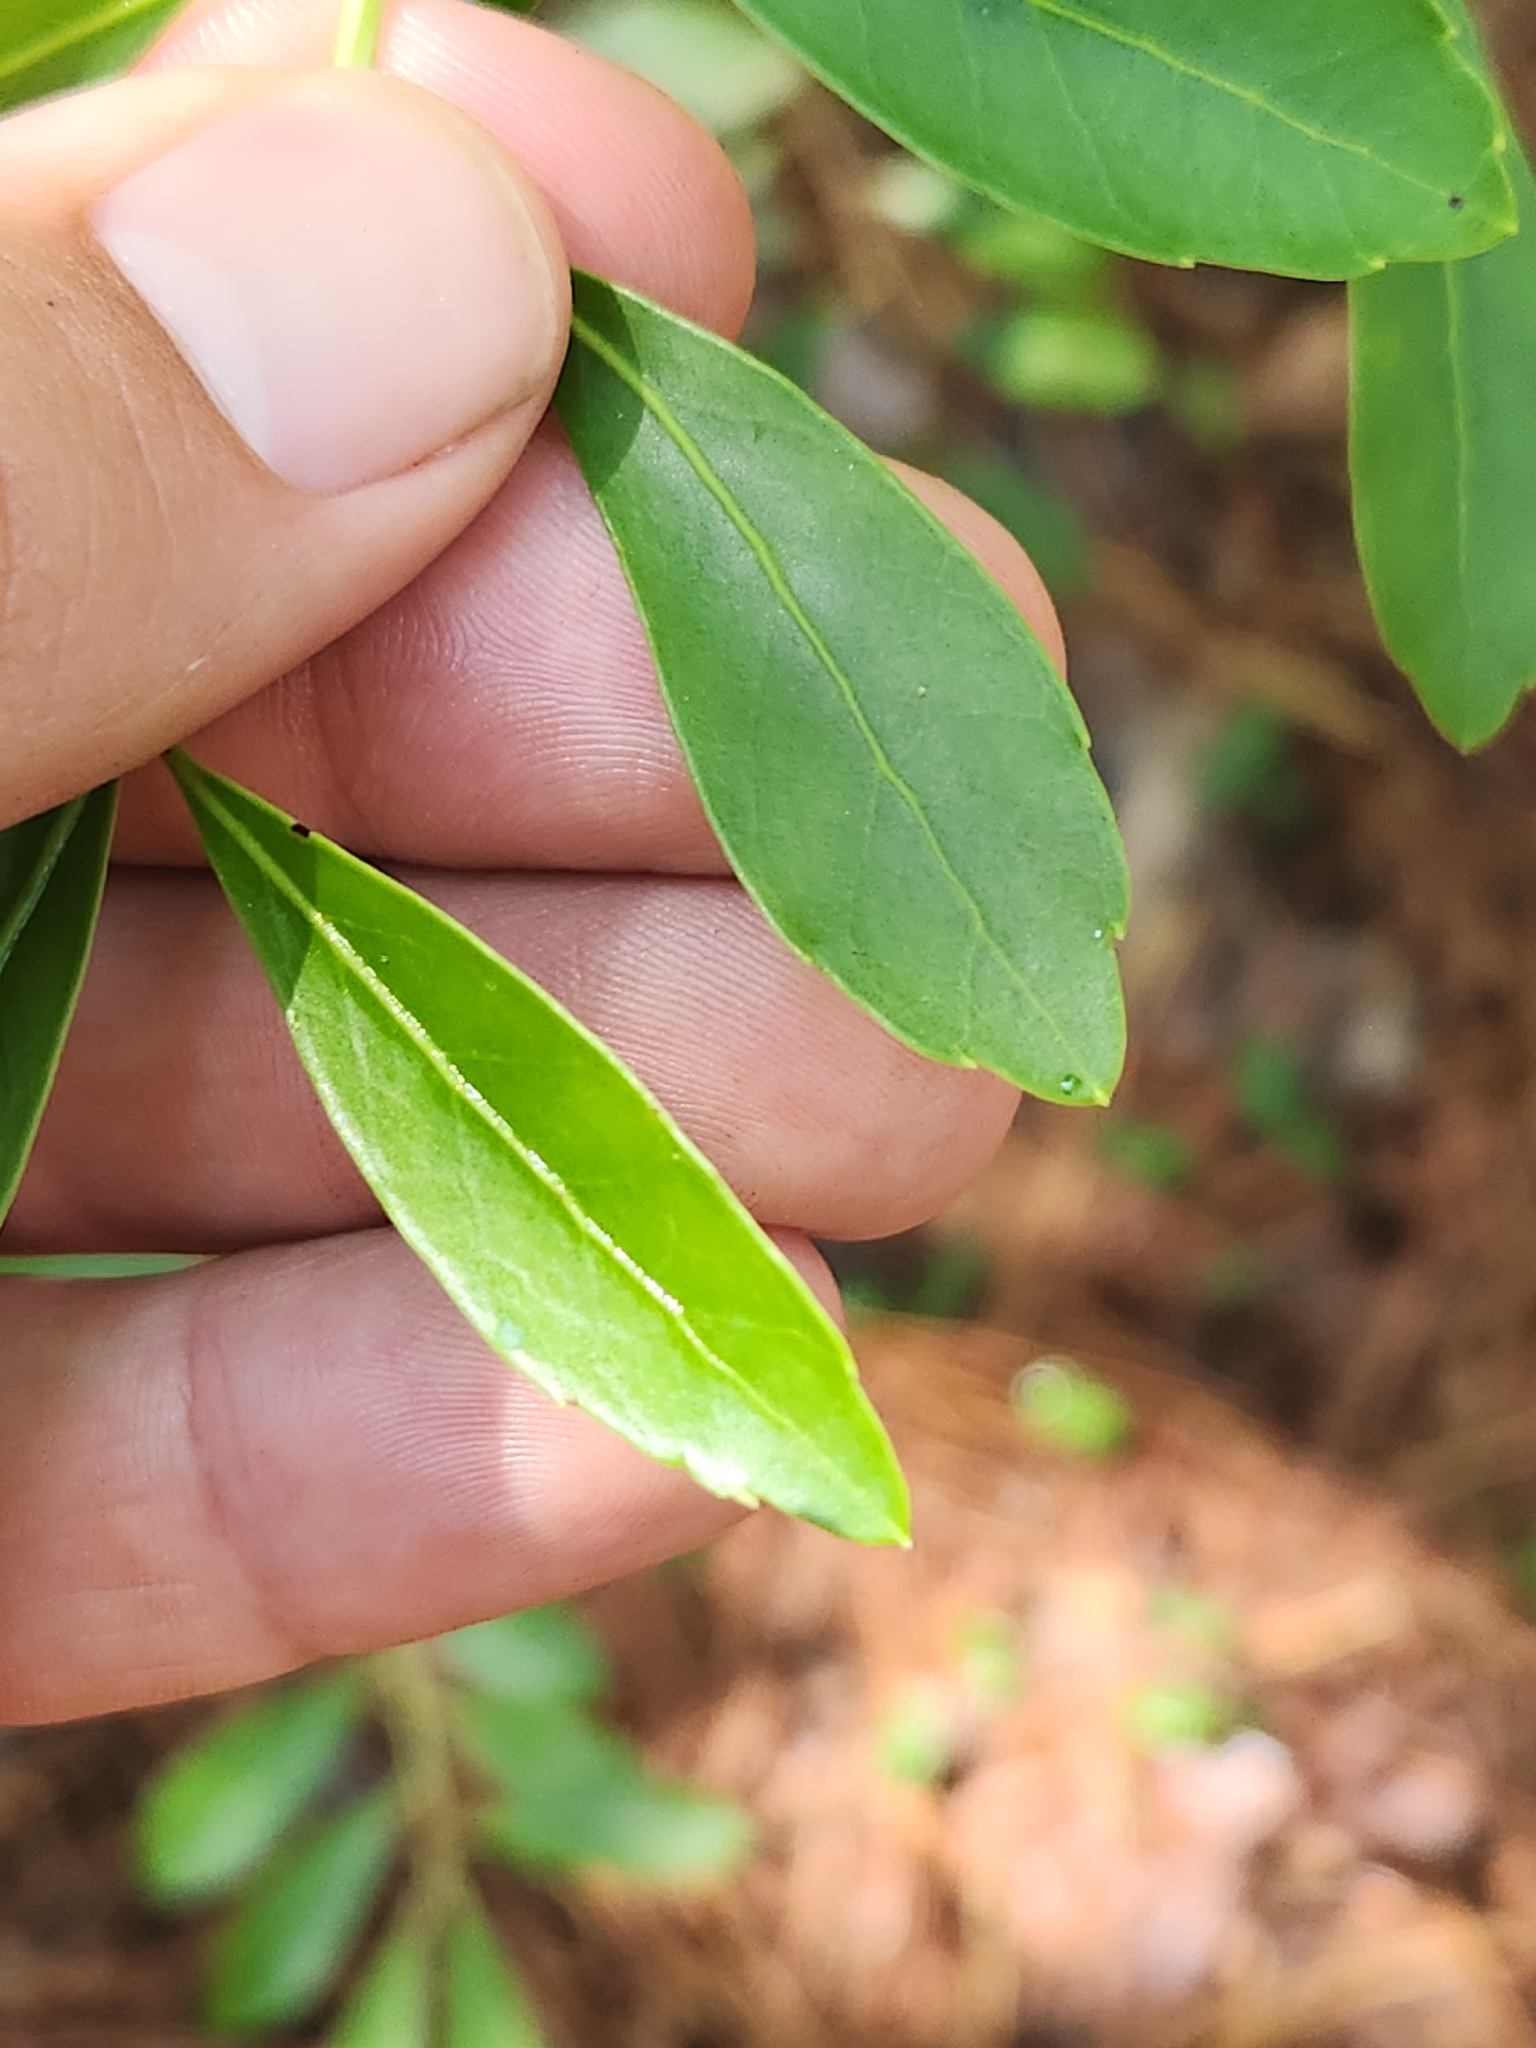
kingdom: Plantae
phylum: Tracheophyta
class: Magnoliopsida
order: Aquifoliales
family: Aquifoliaceae
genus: Ilex
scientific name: Ilex glabra
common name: Bitter gallberry
